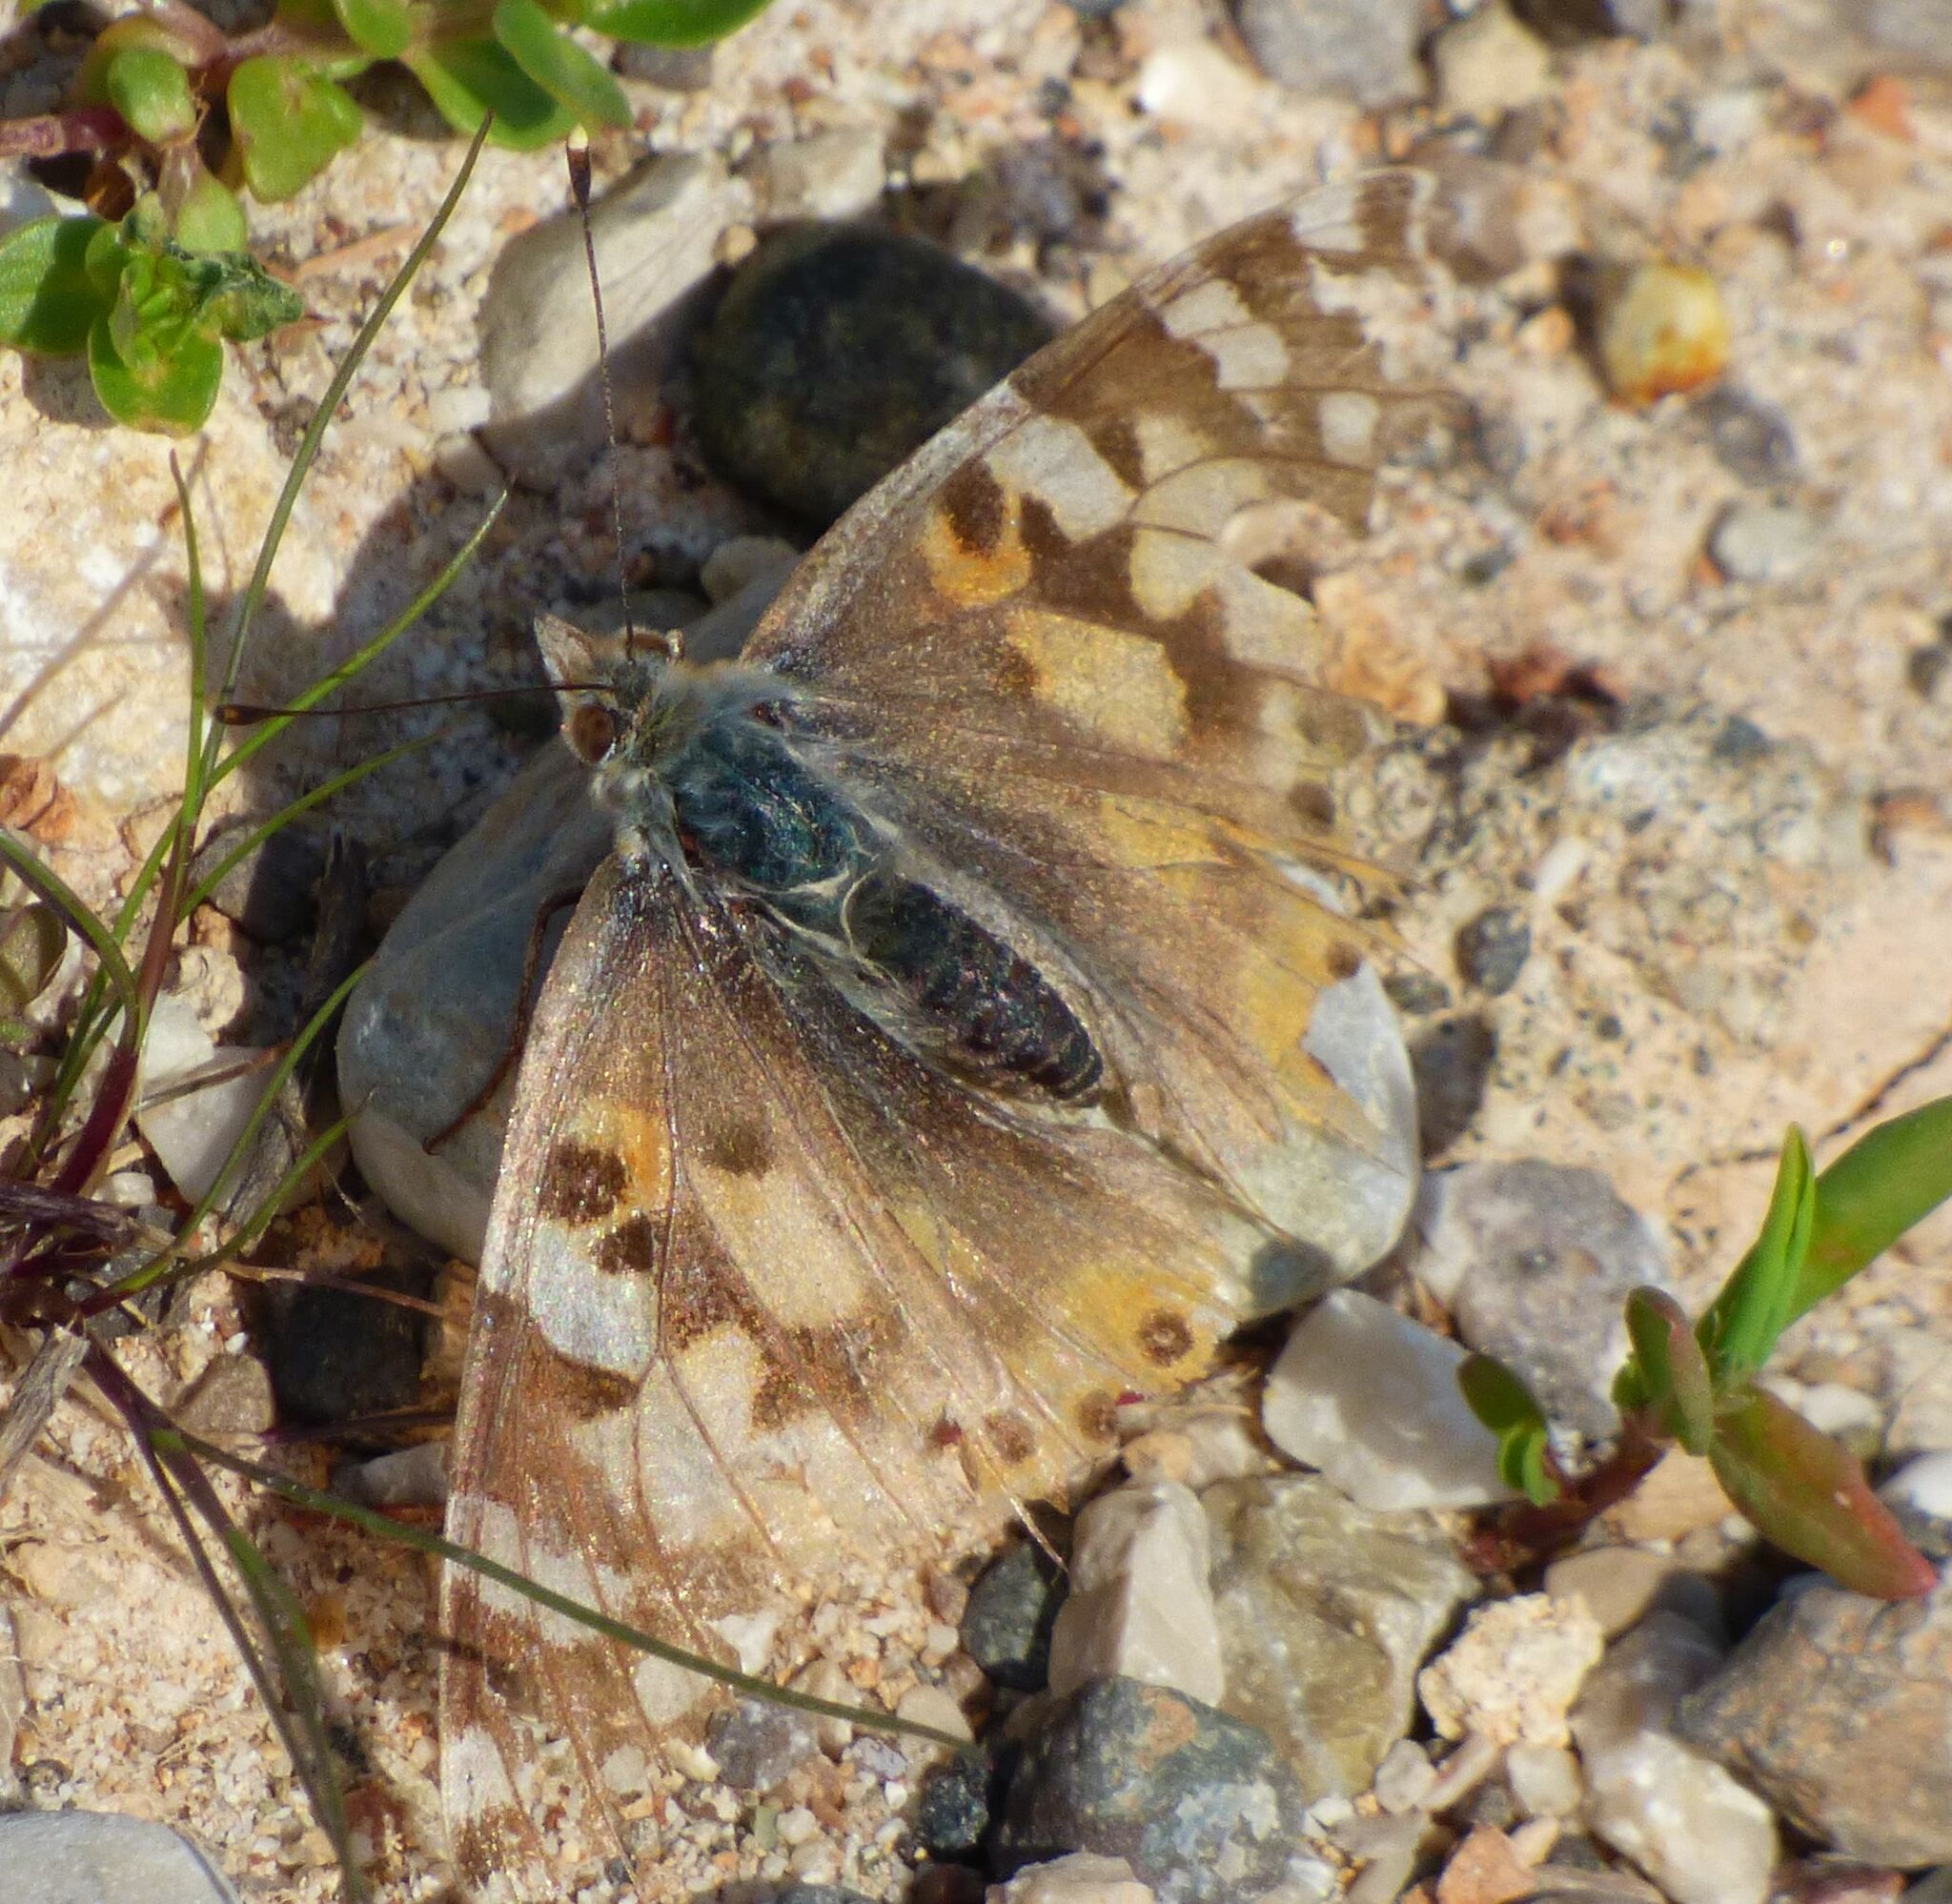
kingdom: Animalia
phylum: Arthropoda
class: Insecta
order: Lepidoptera
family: Nymphalidae
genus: Vanessa
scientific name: Vanessa cardui
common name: Painted lady
